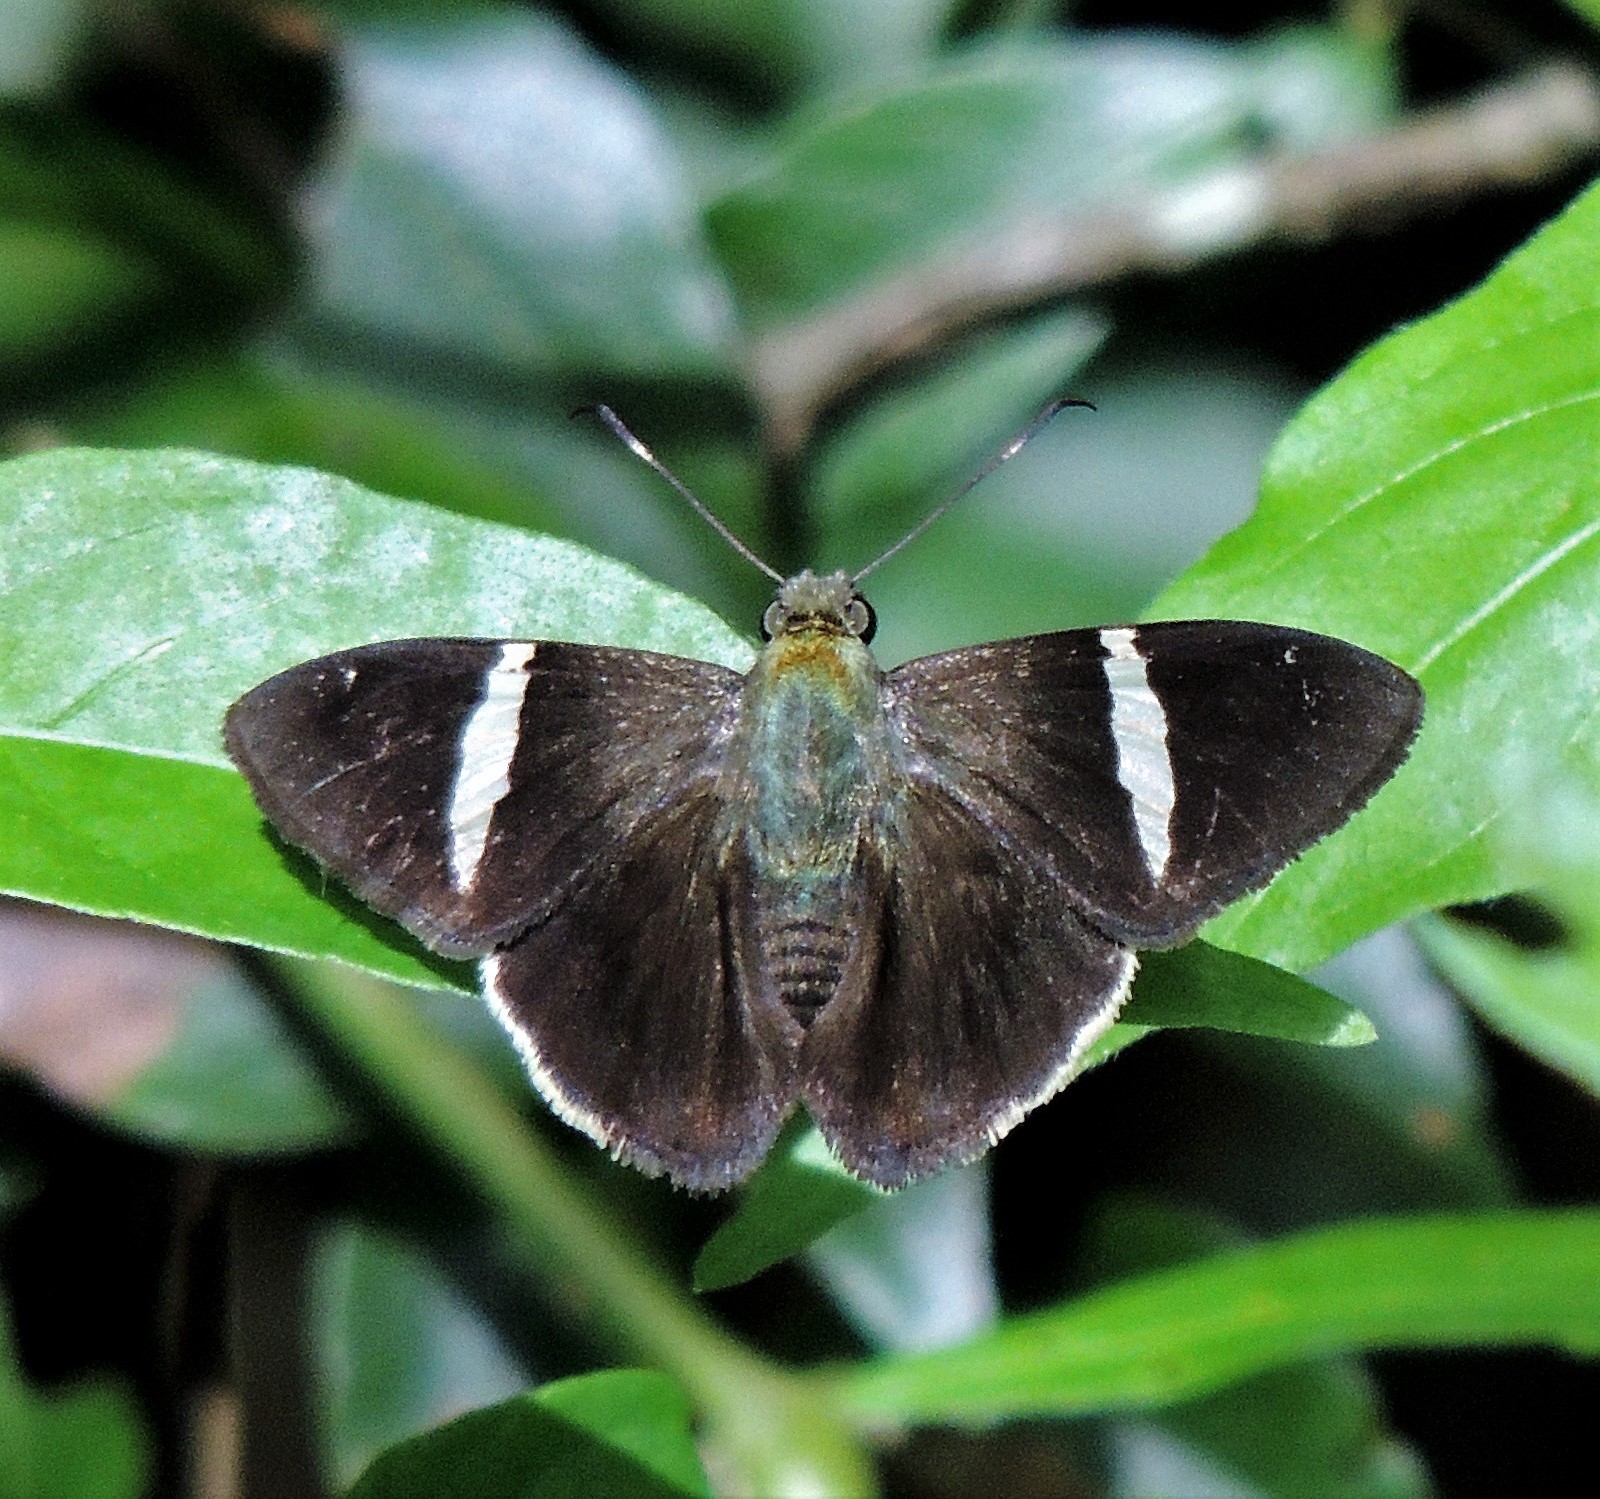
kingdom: Animalia
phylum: Arthropoda
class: Insecta
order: Lepidoptera
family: Hesperiidae
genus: Autochton
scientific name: Autochton zarex
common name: Sharp banded-skipper
